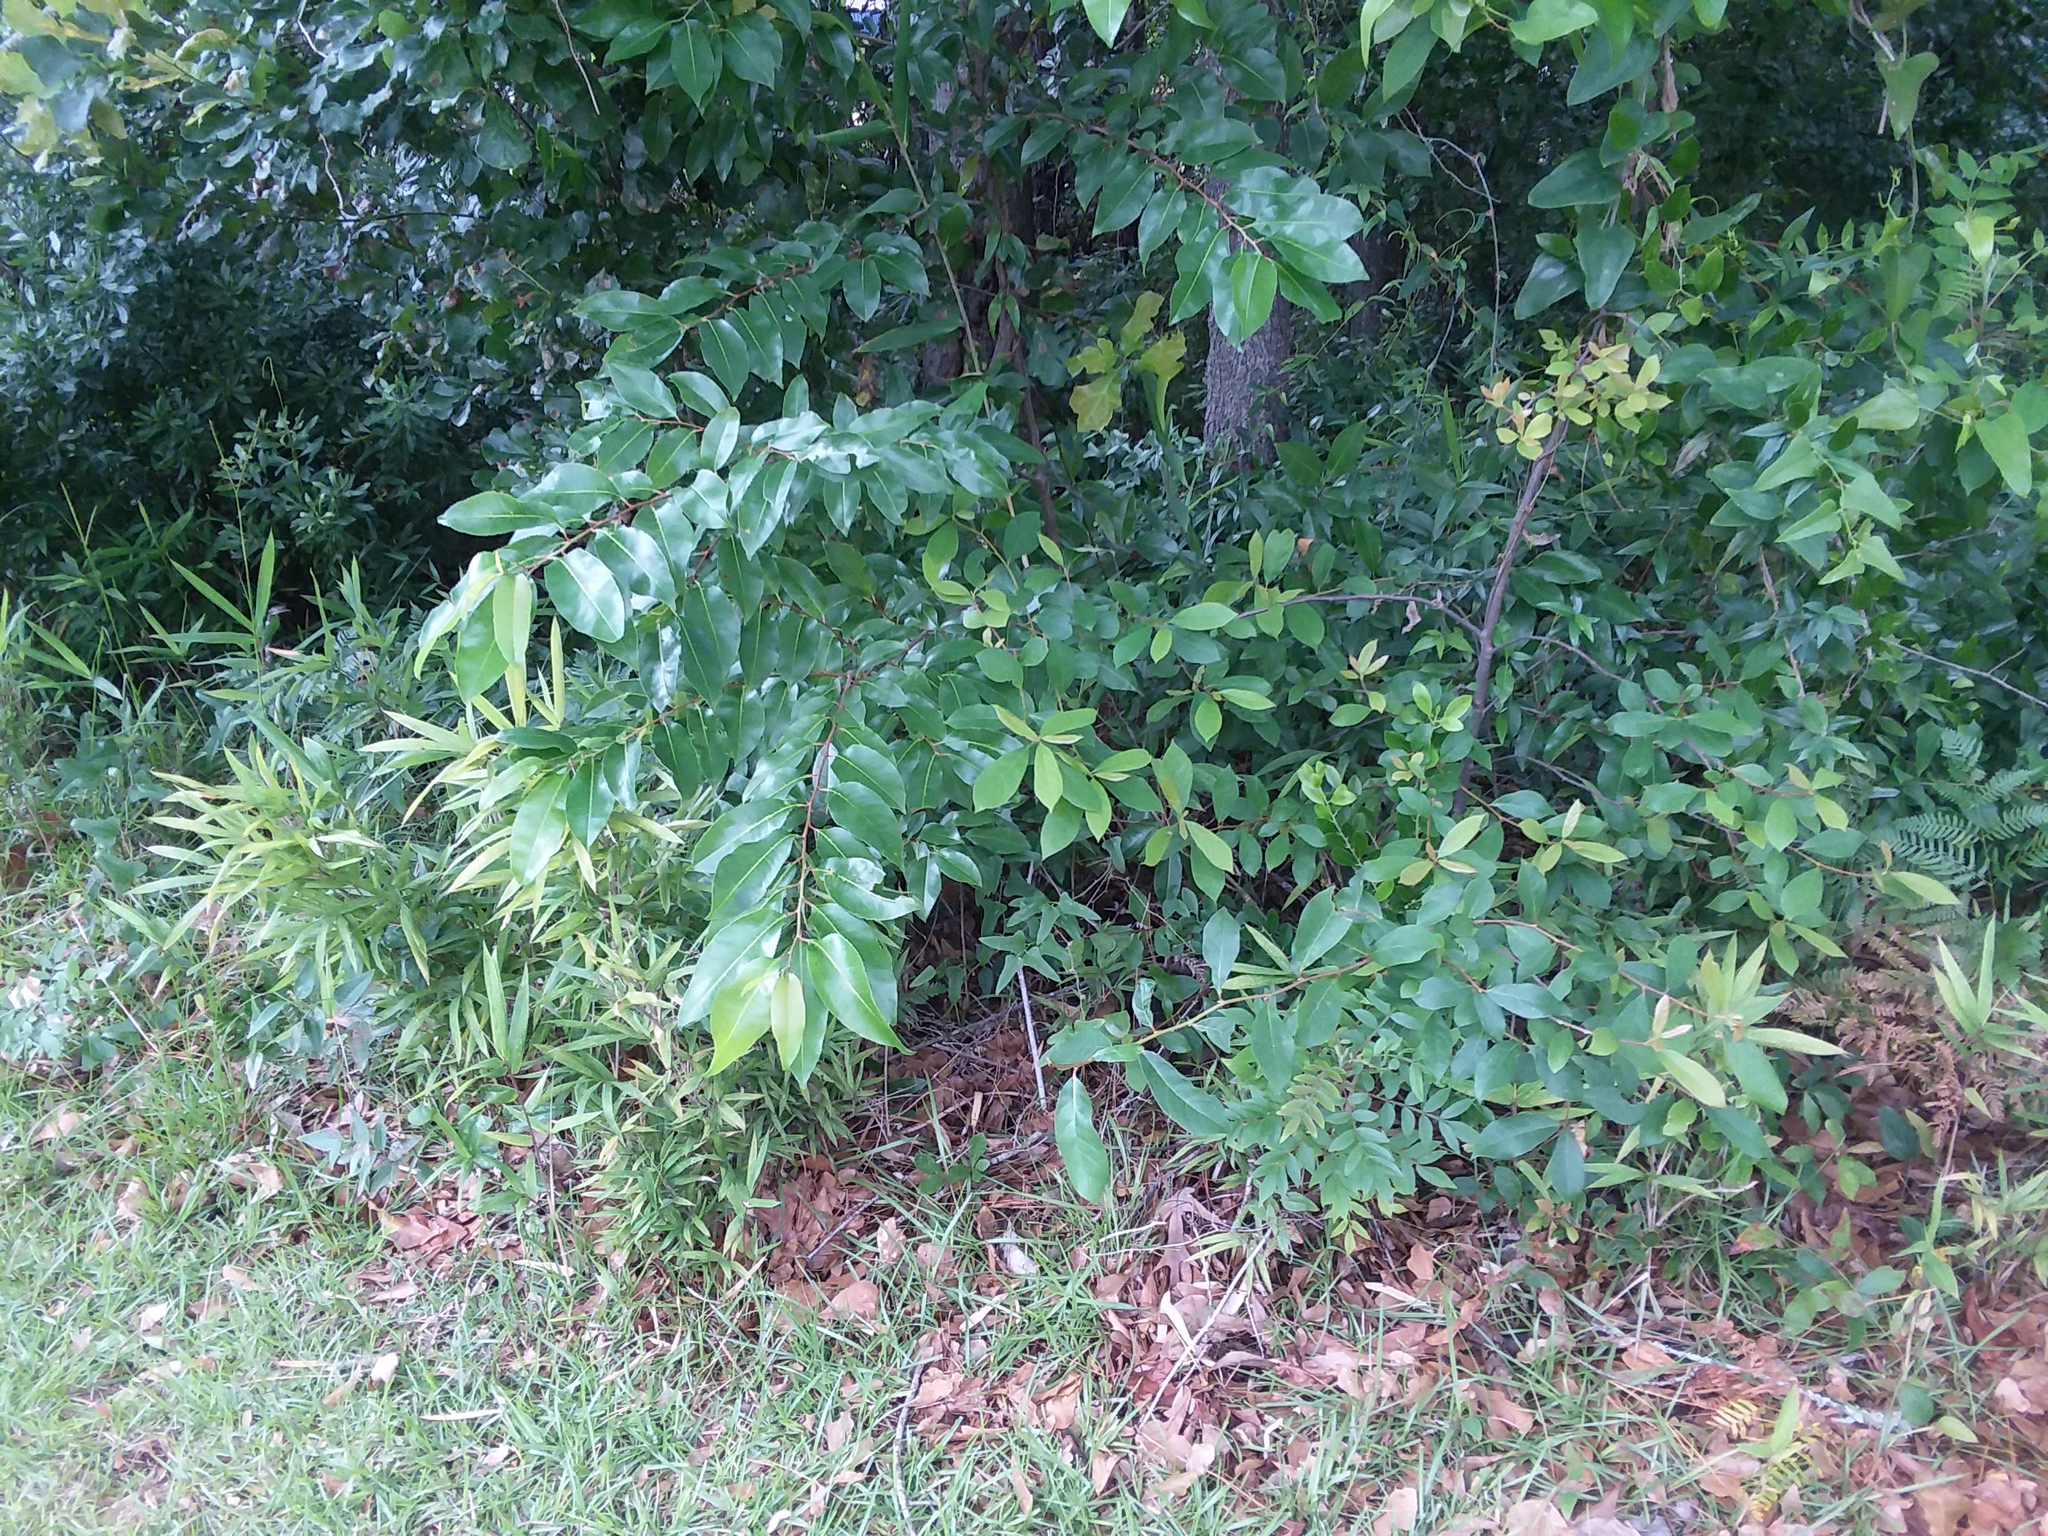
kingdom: Plantae
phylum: Tracheophyta
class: Magnoliopsida
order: Sapindales
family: Anacardiaceae
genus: Rhus
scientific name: Rhus copallina
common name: Shining sumac
